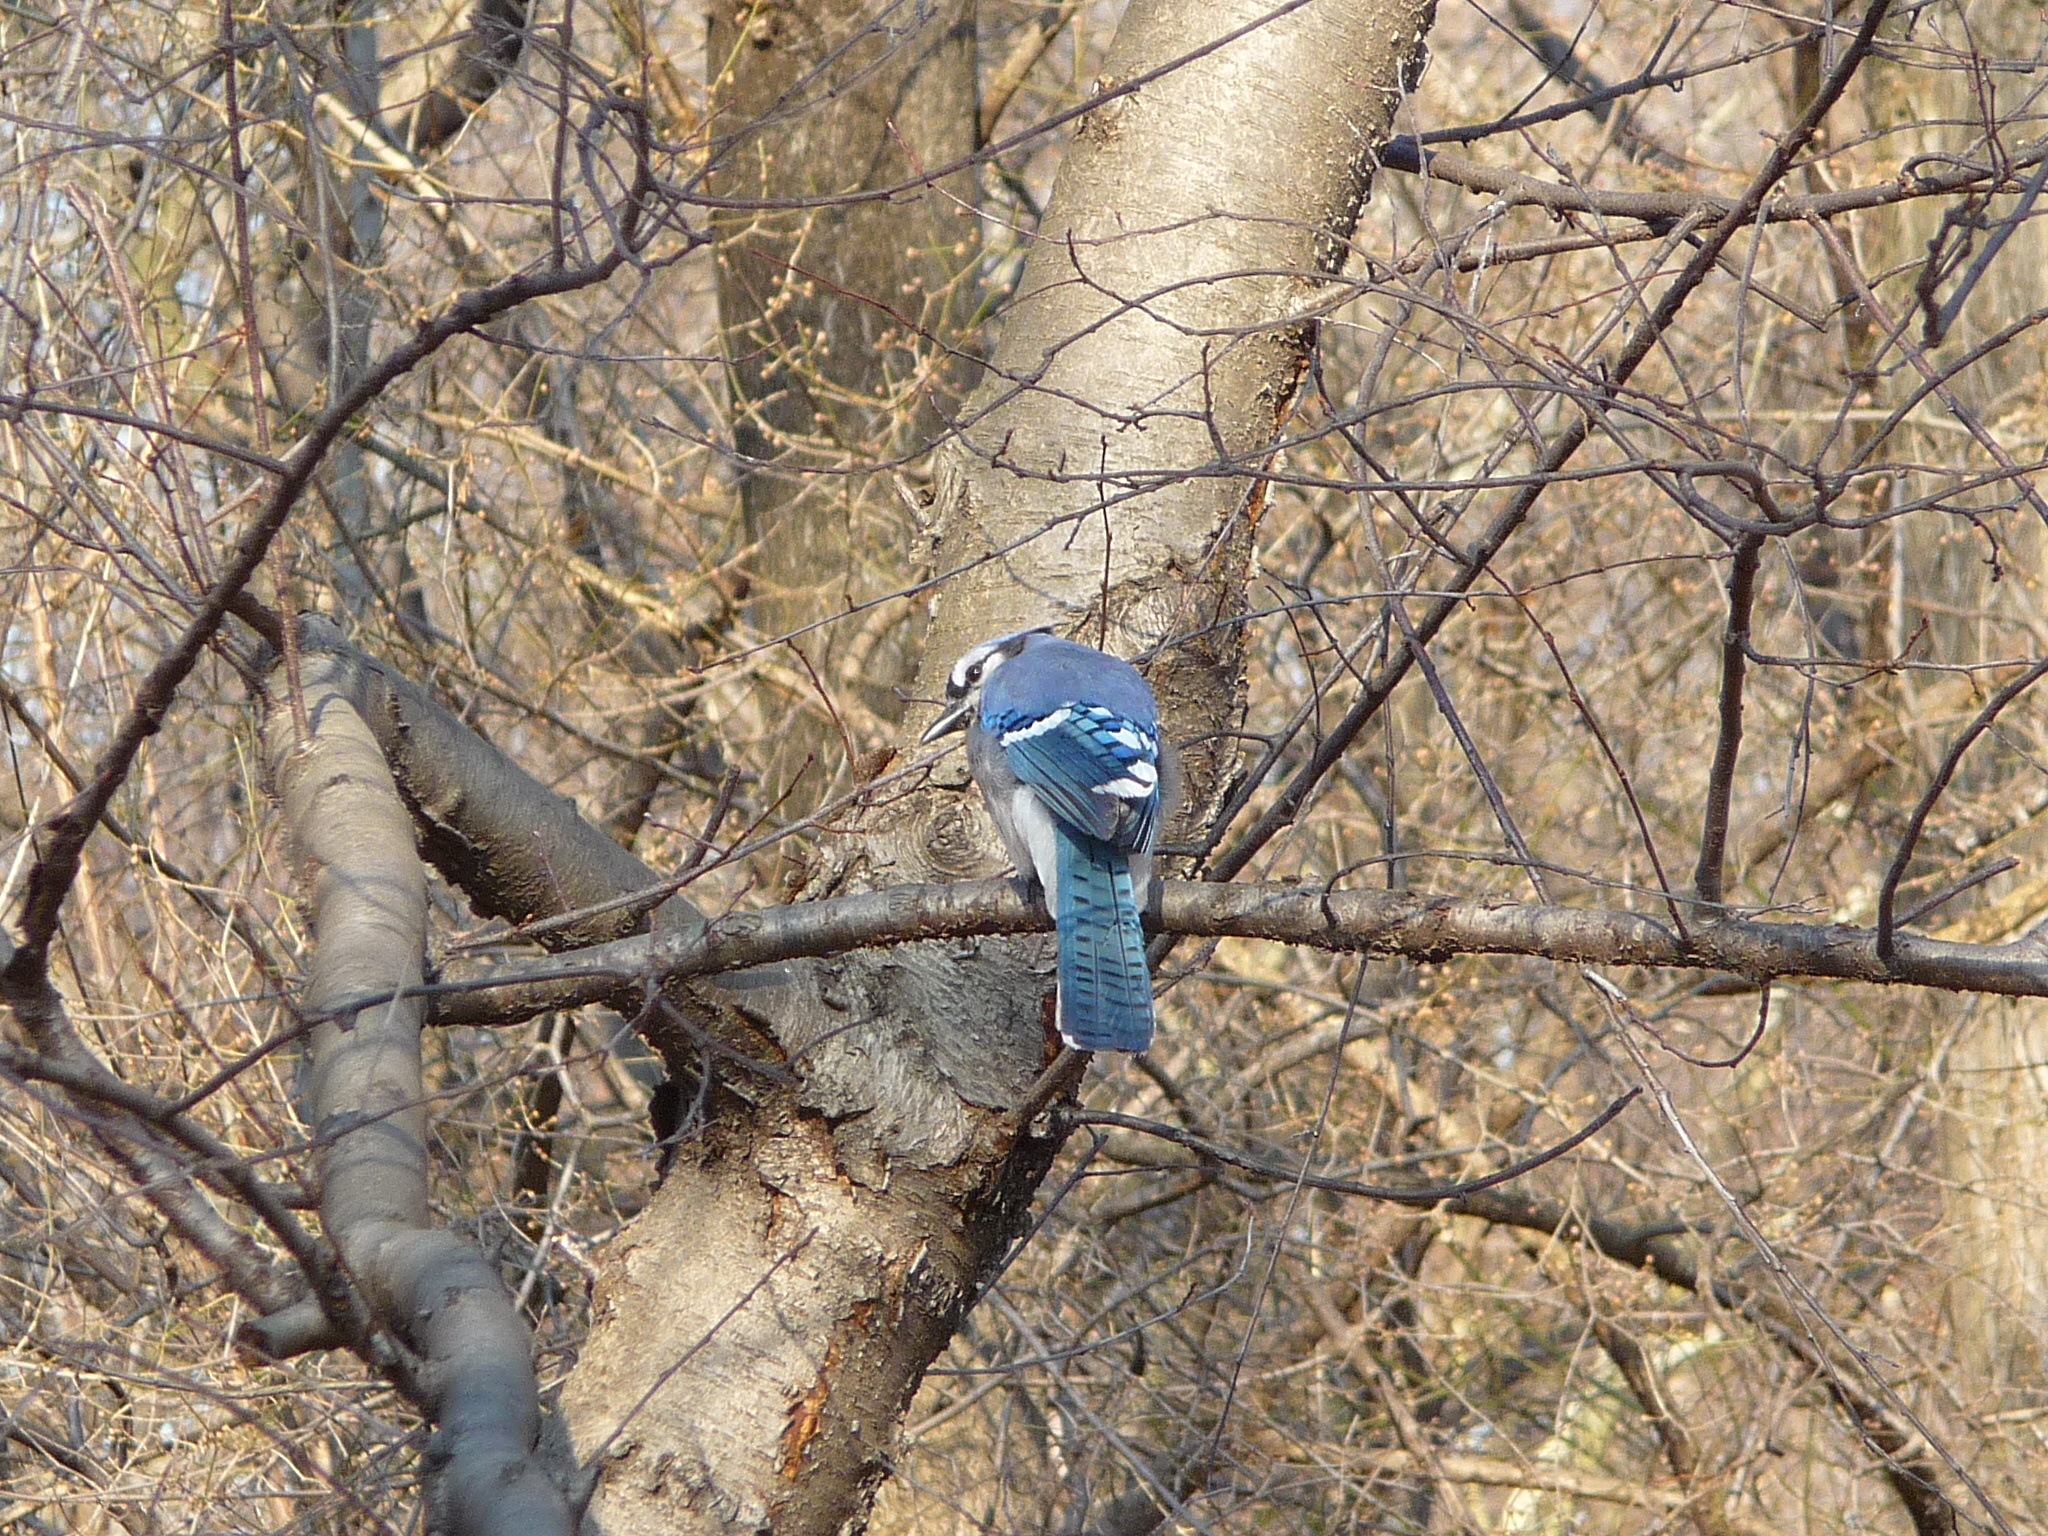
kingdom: Animalia
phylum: Chordata
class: Aves
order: Passeriformes
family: Corvidae
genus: Cyanocitta
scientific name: Cyanocitta cristata
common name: Blue jay
